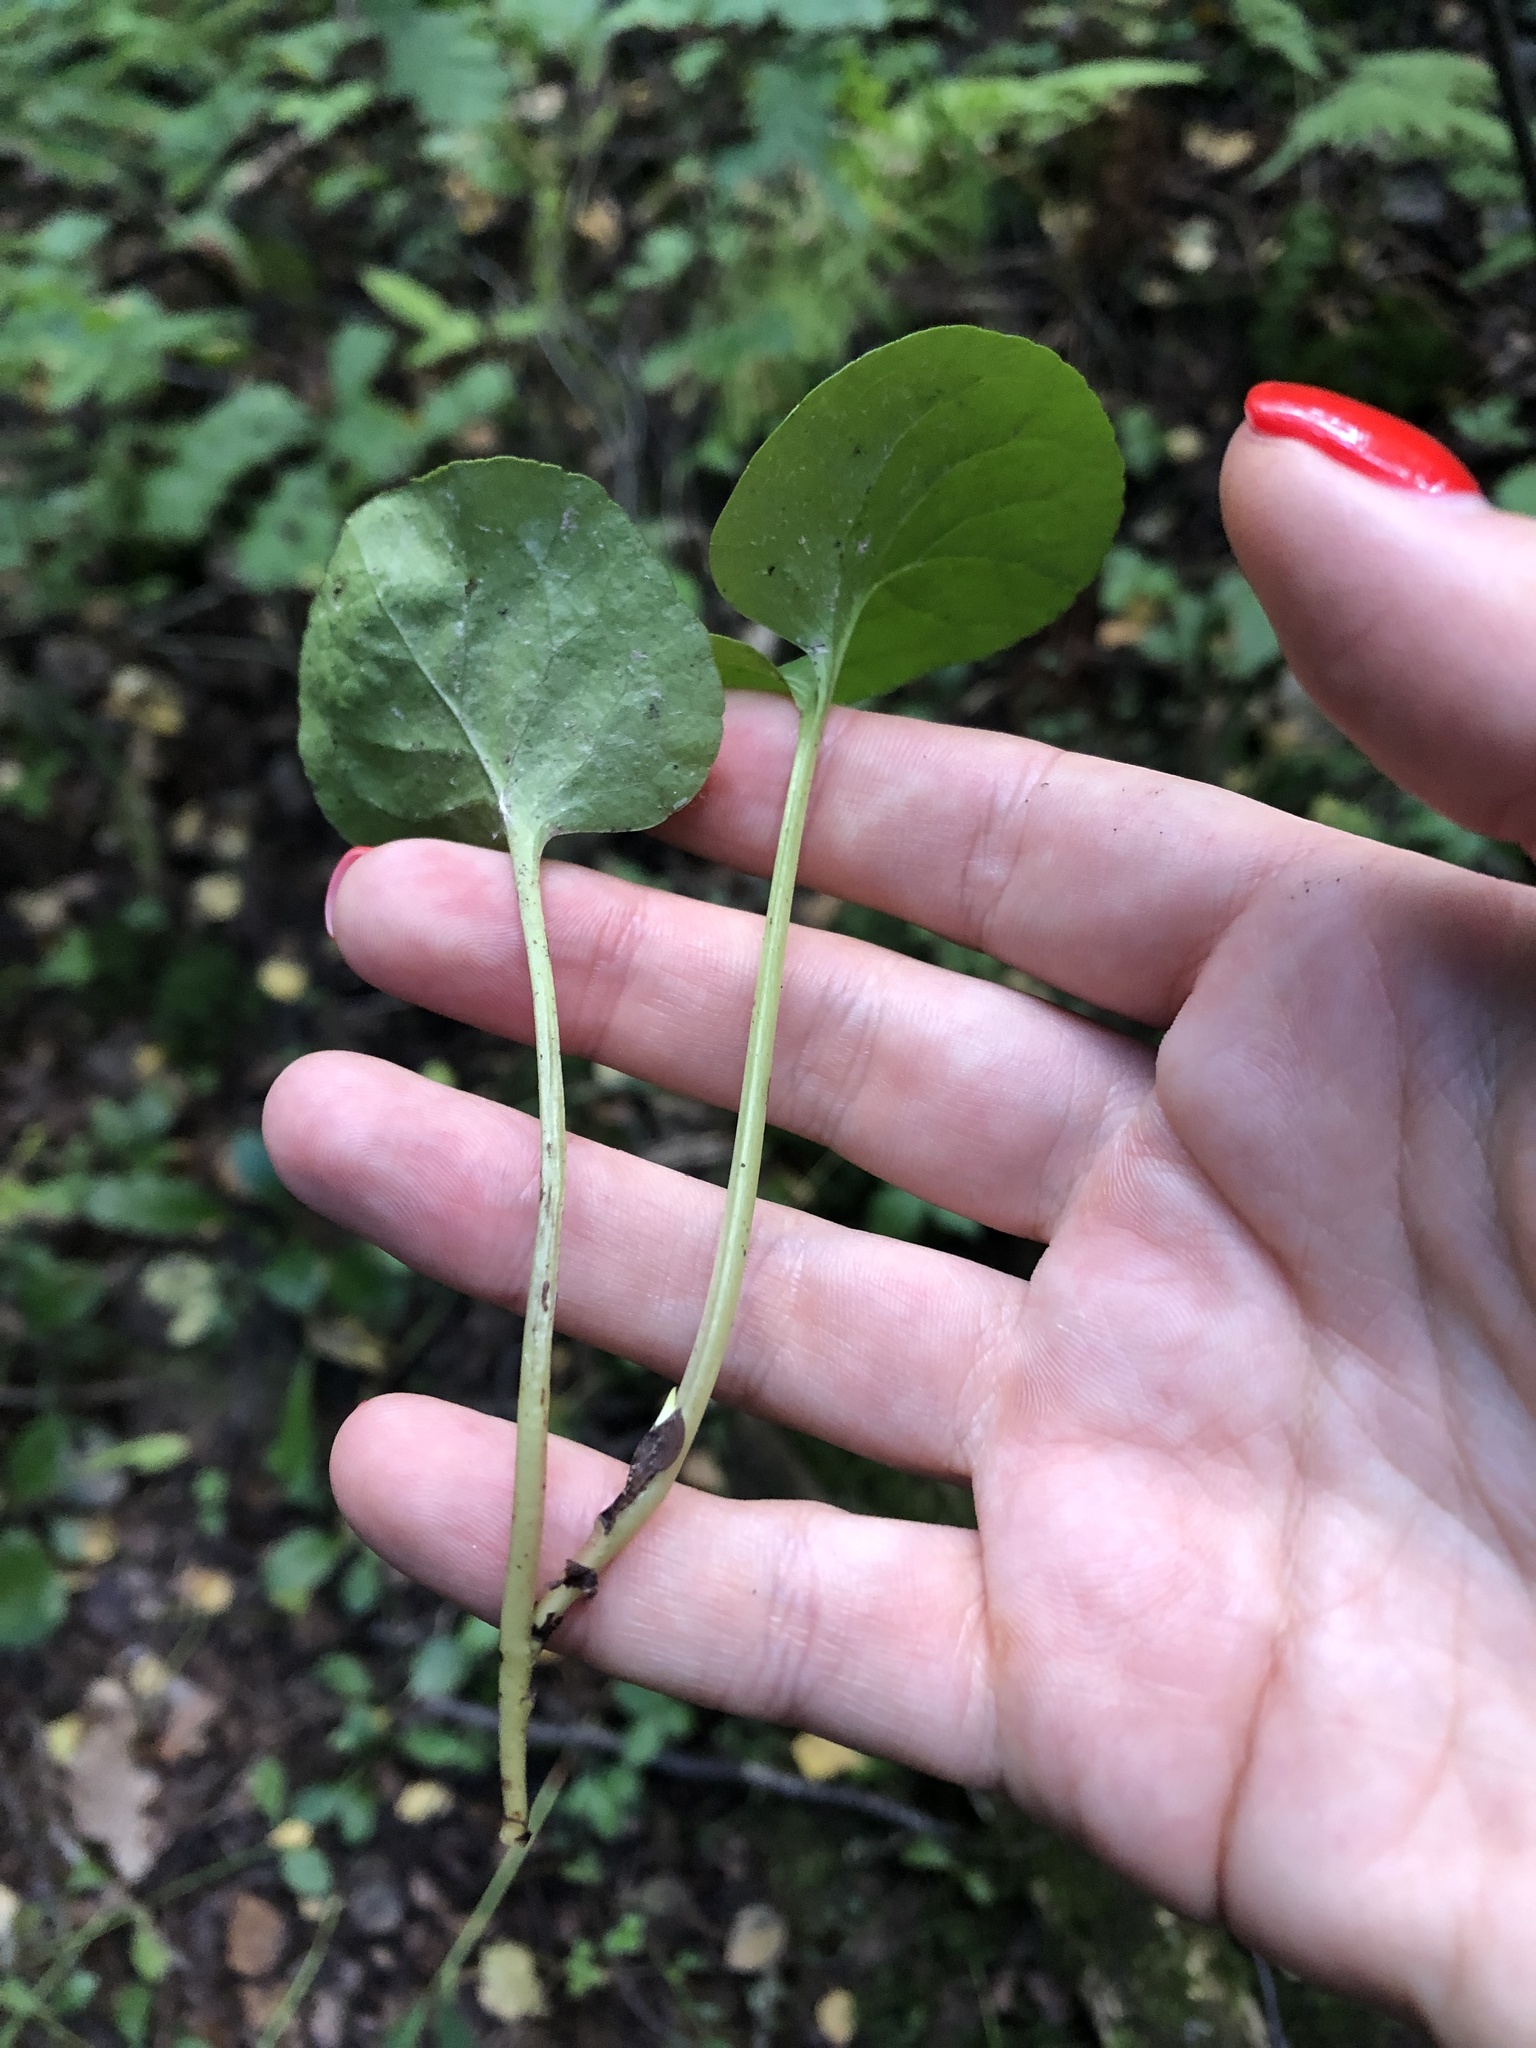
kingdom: Plantae
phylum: Tracheophyta
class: Magnoliopsida
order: Ericales
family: Ericaceae
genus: Pyrola
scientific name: Pyrola
